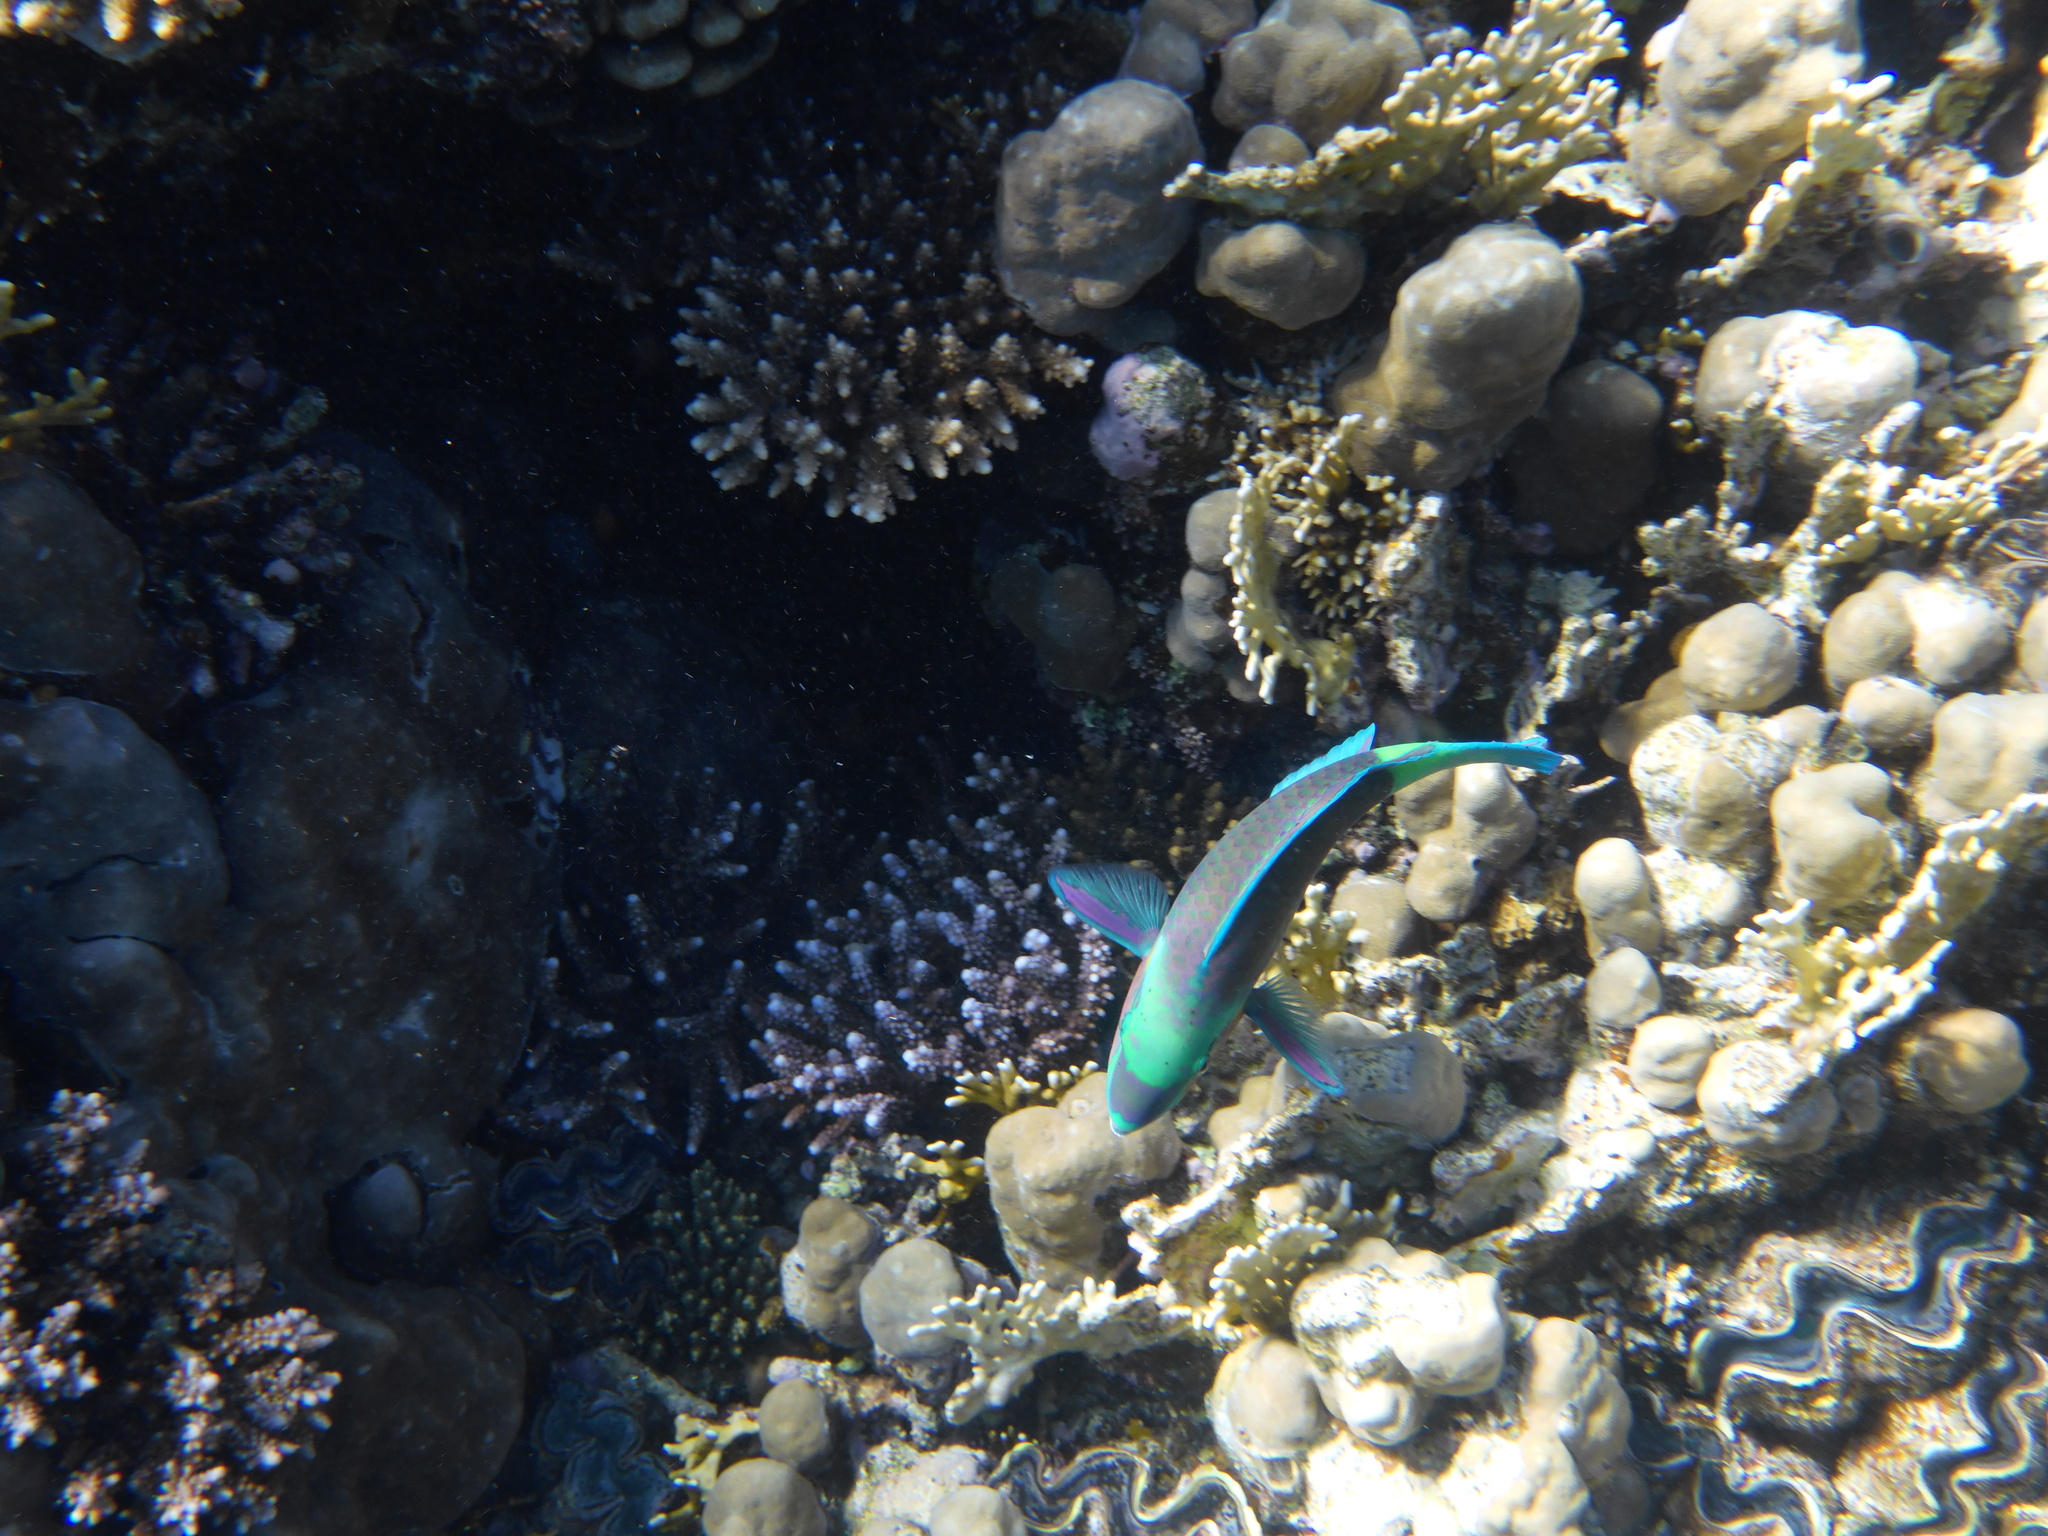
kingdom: Animalia
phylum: Chordata
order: Perciformes
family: Scaridae
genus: Chlorurus
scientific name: Chlorurus sordidus
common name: Bullethead parrotfish
